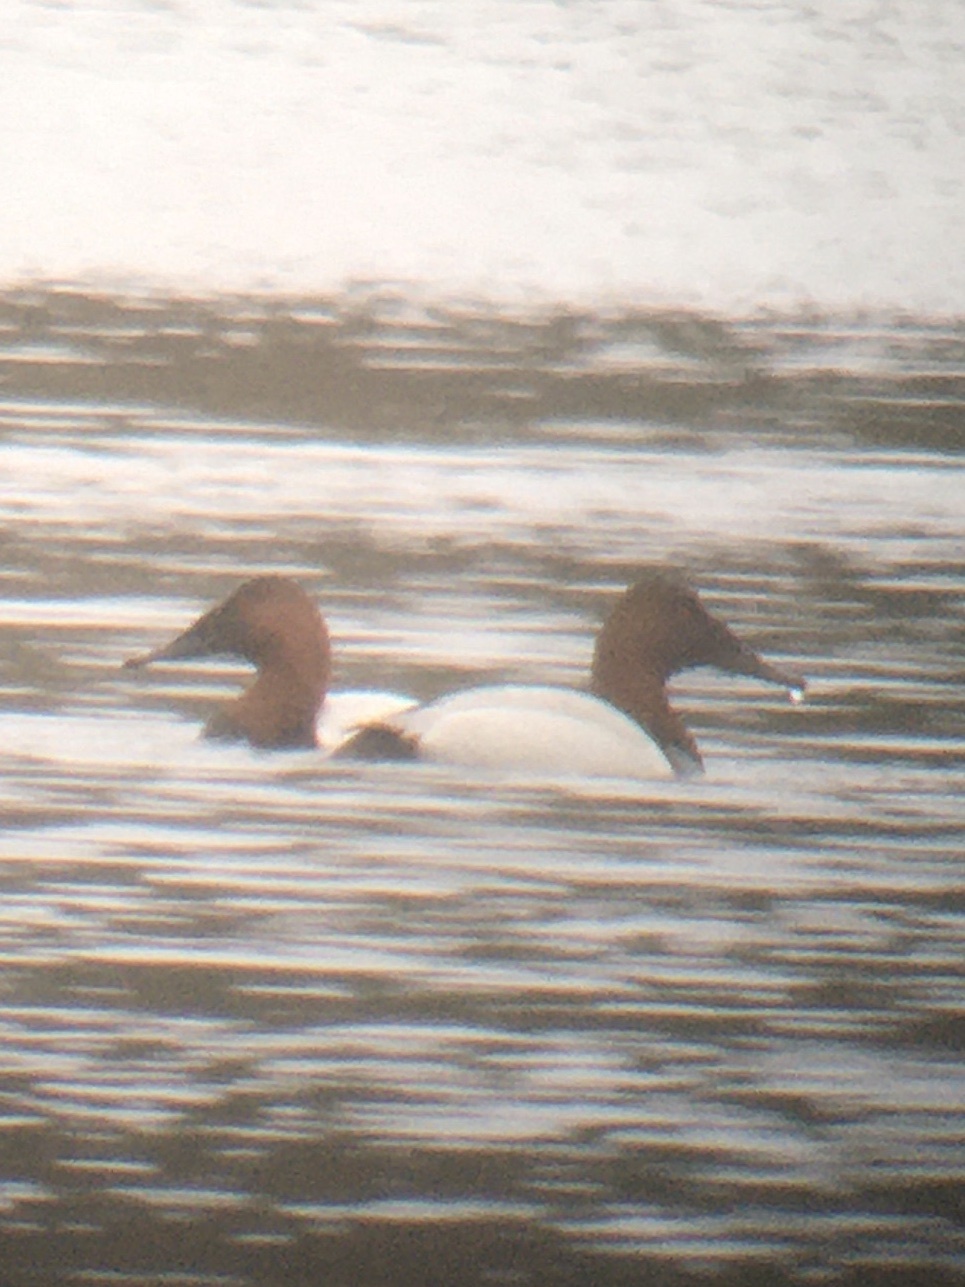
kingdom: Animalia
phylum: Chordata
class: Aves
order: Anseriformes
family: Anatidae
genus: Aythya
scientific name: Aythya valisineria
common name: Canvasback
